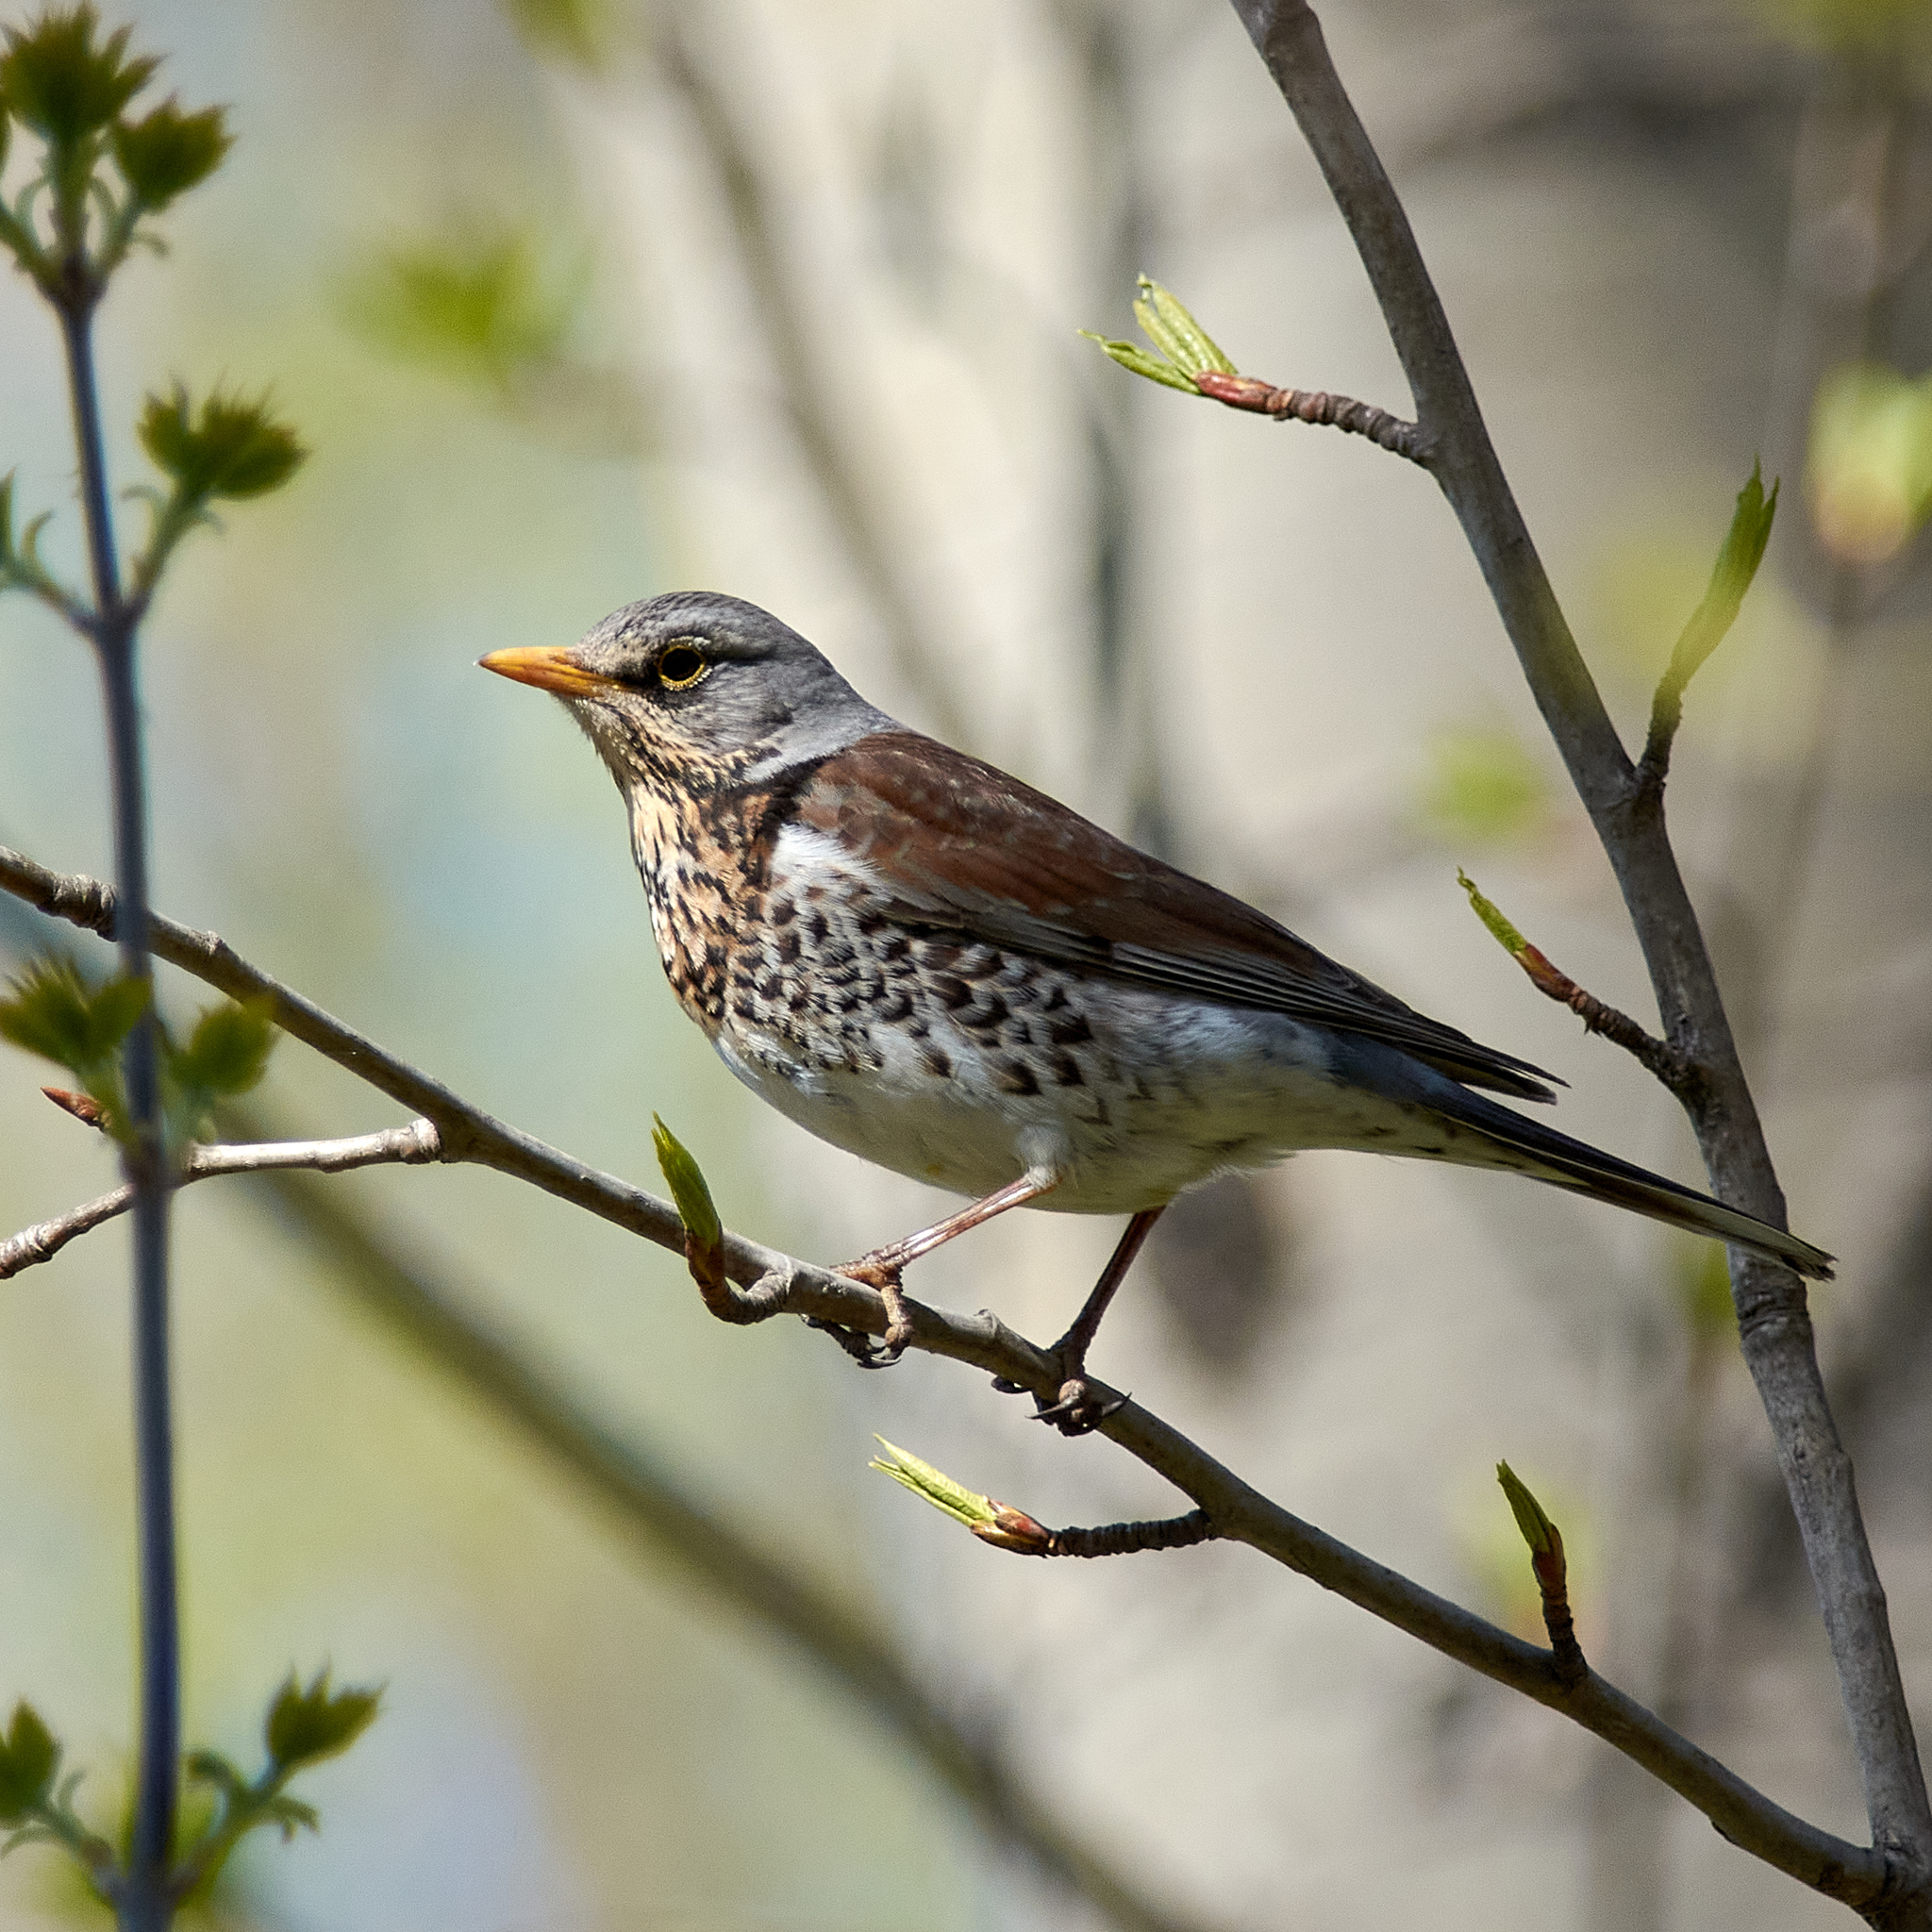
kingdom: Animalia
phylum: Chordata
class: Aves
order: Passeriformes
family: Turdidae
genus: Turdus
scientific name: Turdus pilaris
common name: Fieldfare
